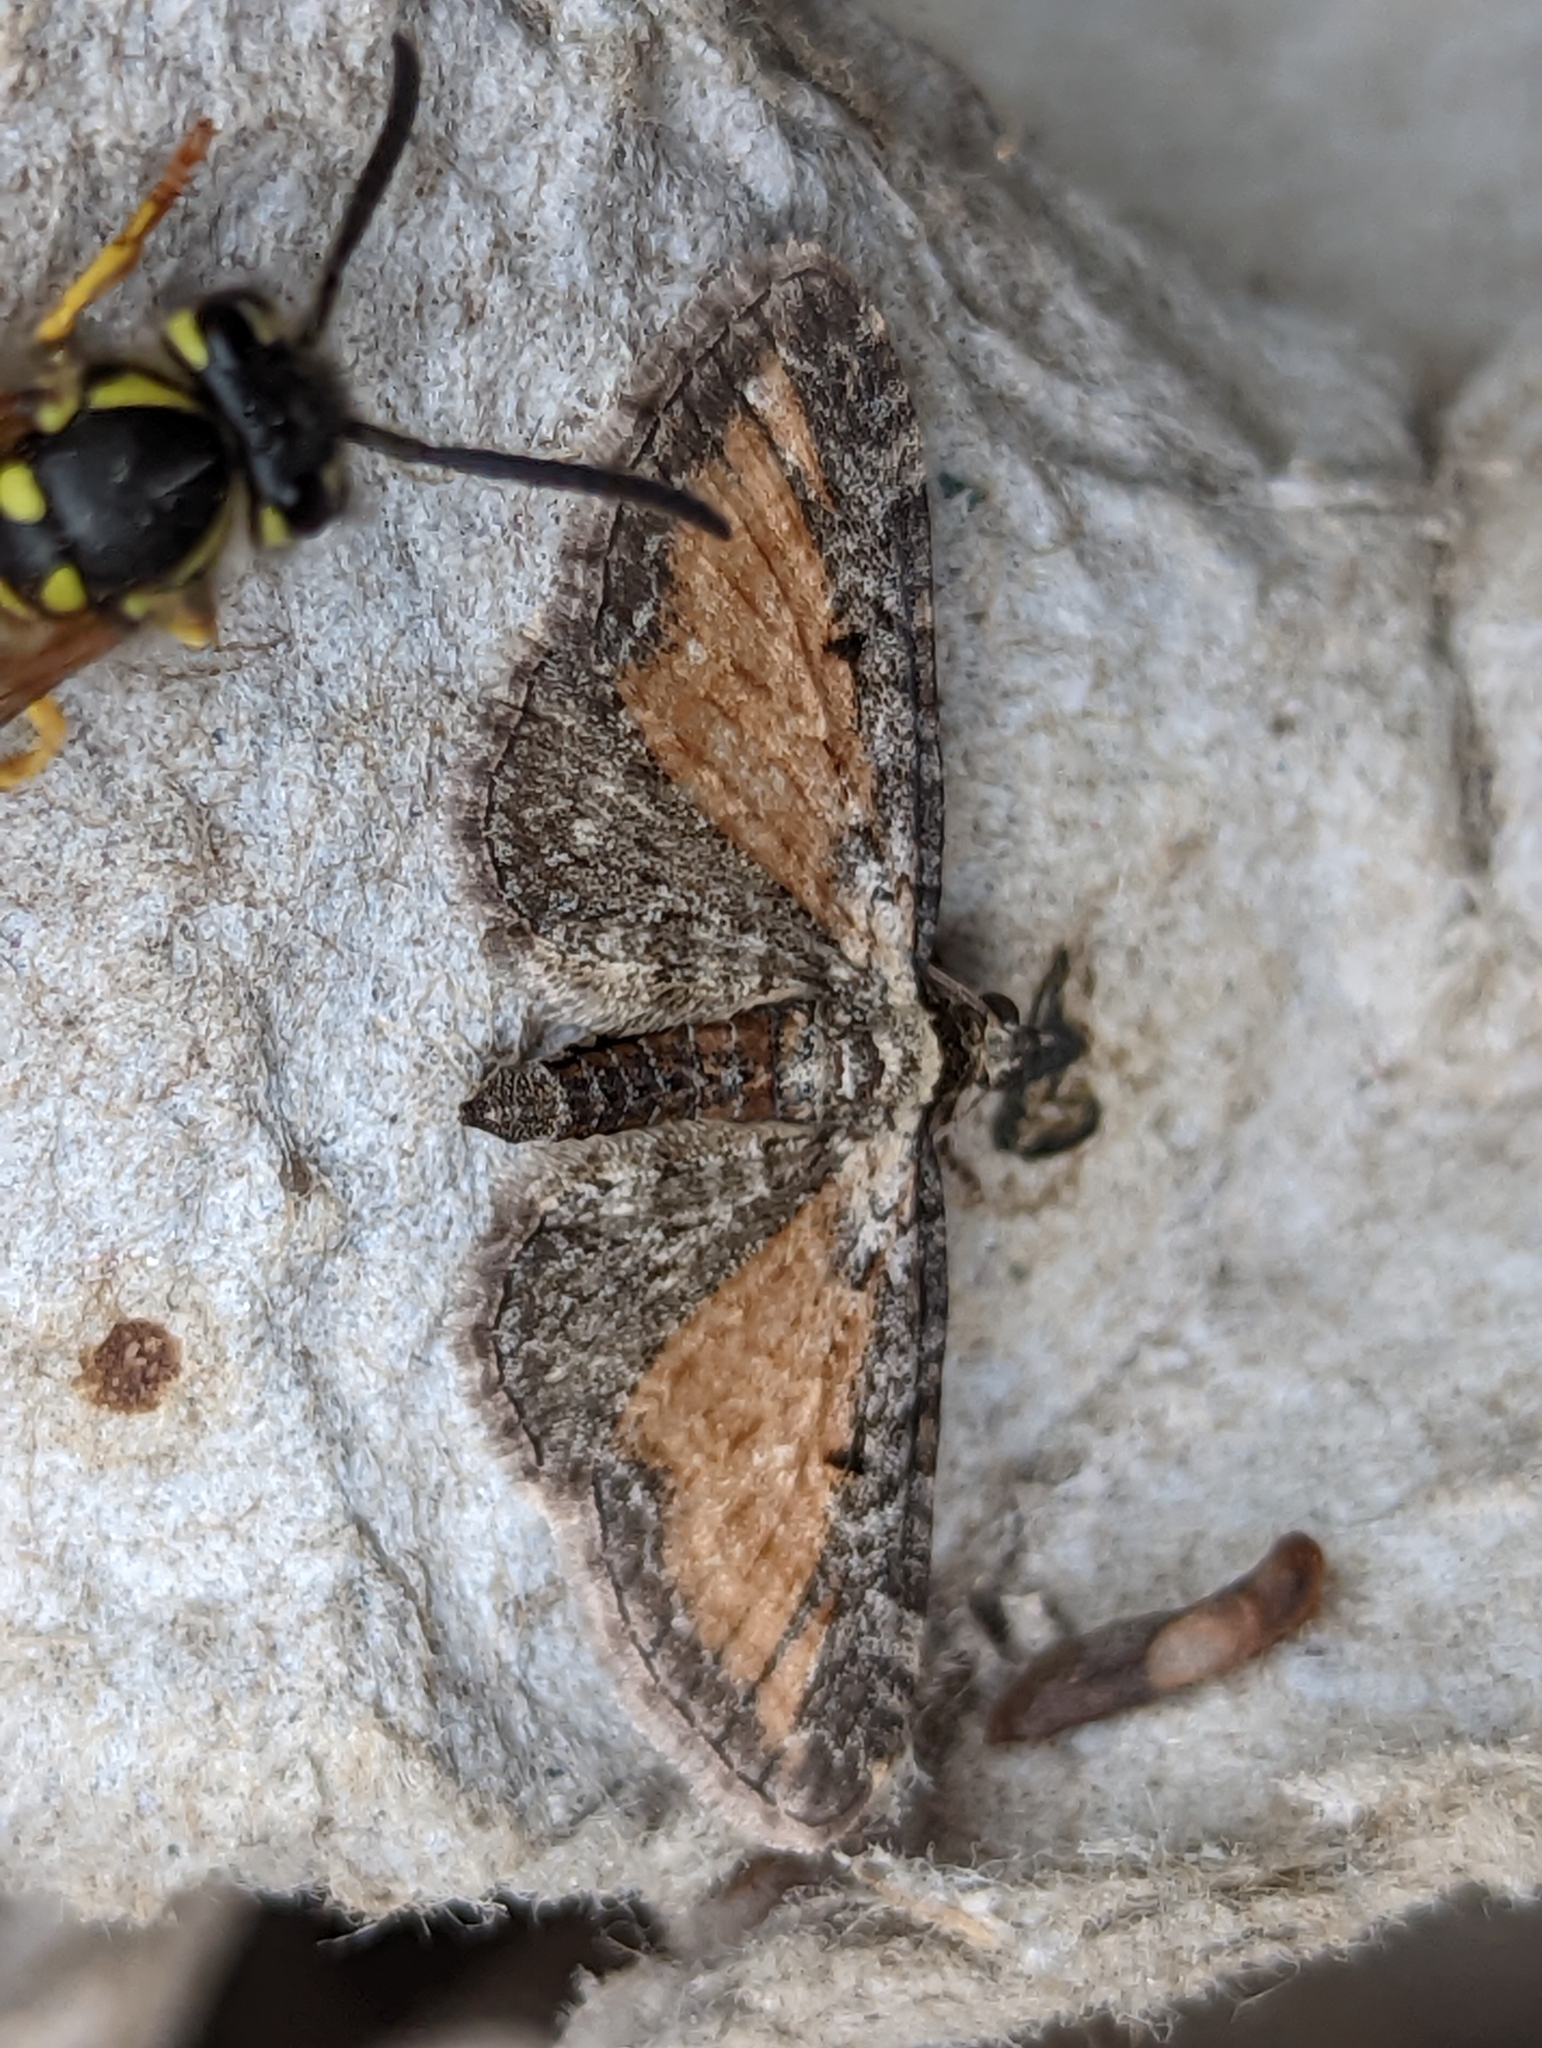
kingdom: Animalia
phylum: Arthropoda
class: Insecta
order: Lepidoptera
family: Geometridae
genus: Eupithecia
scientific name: Eupithecia icterata
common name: Tawny speckled pug
